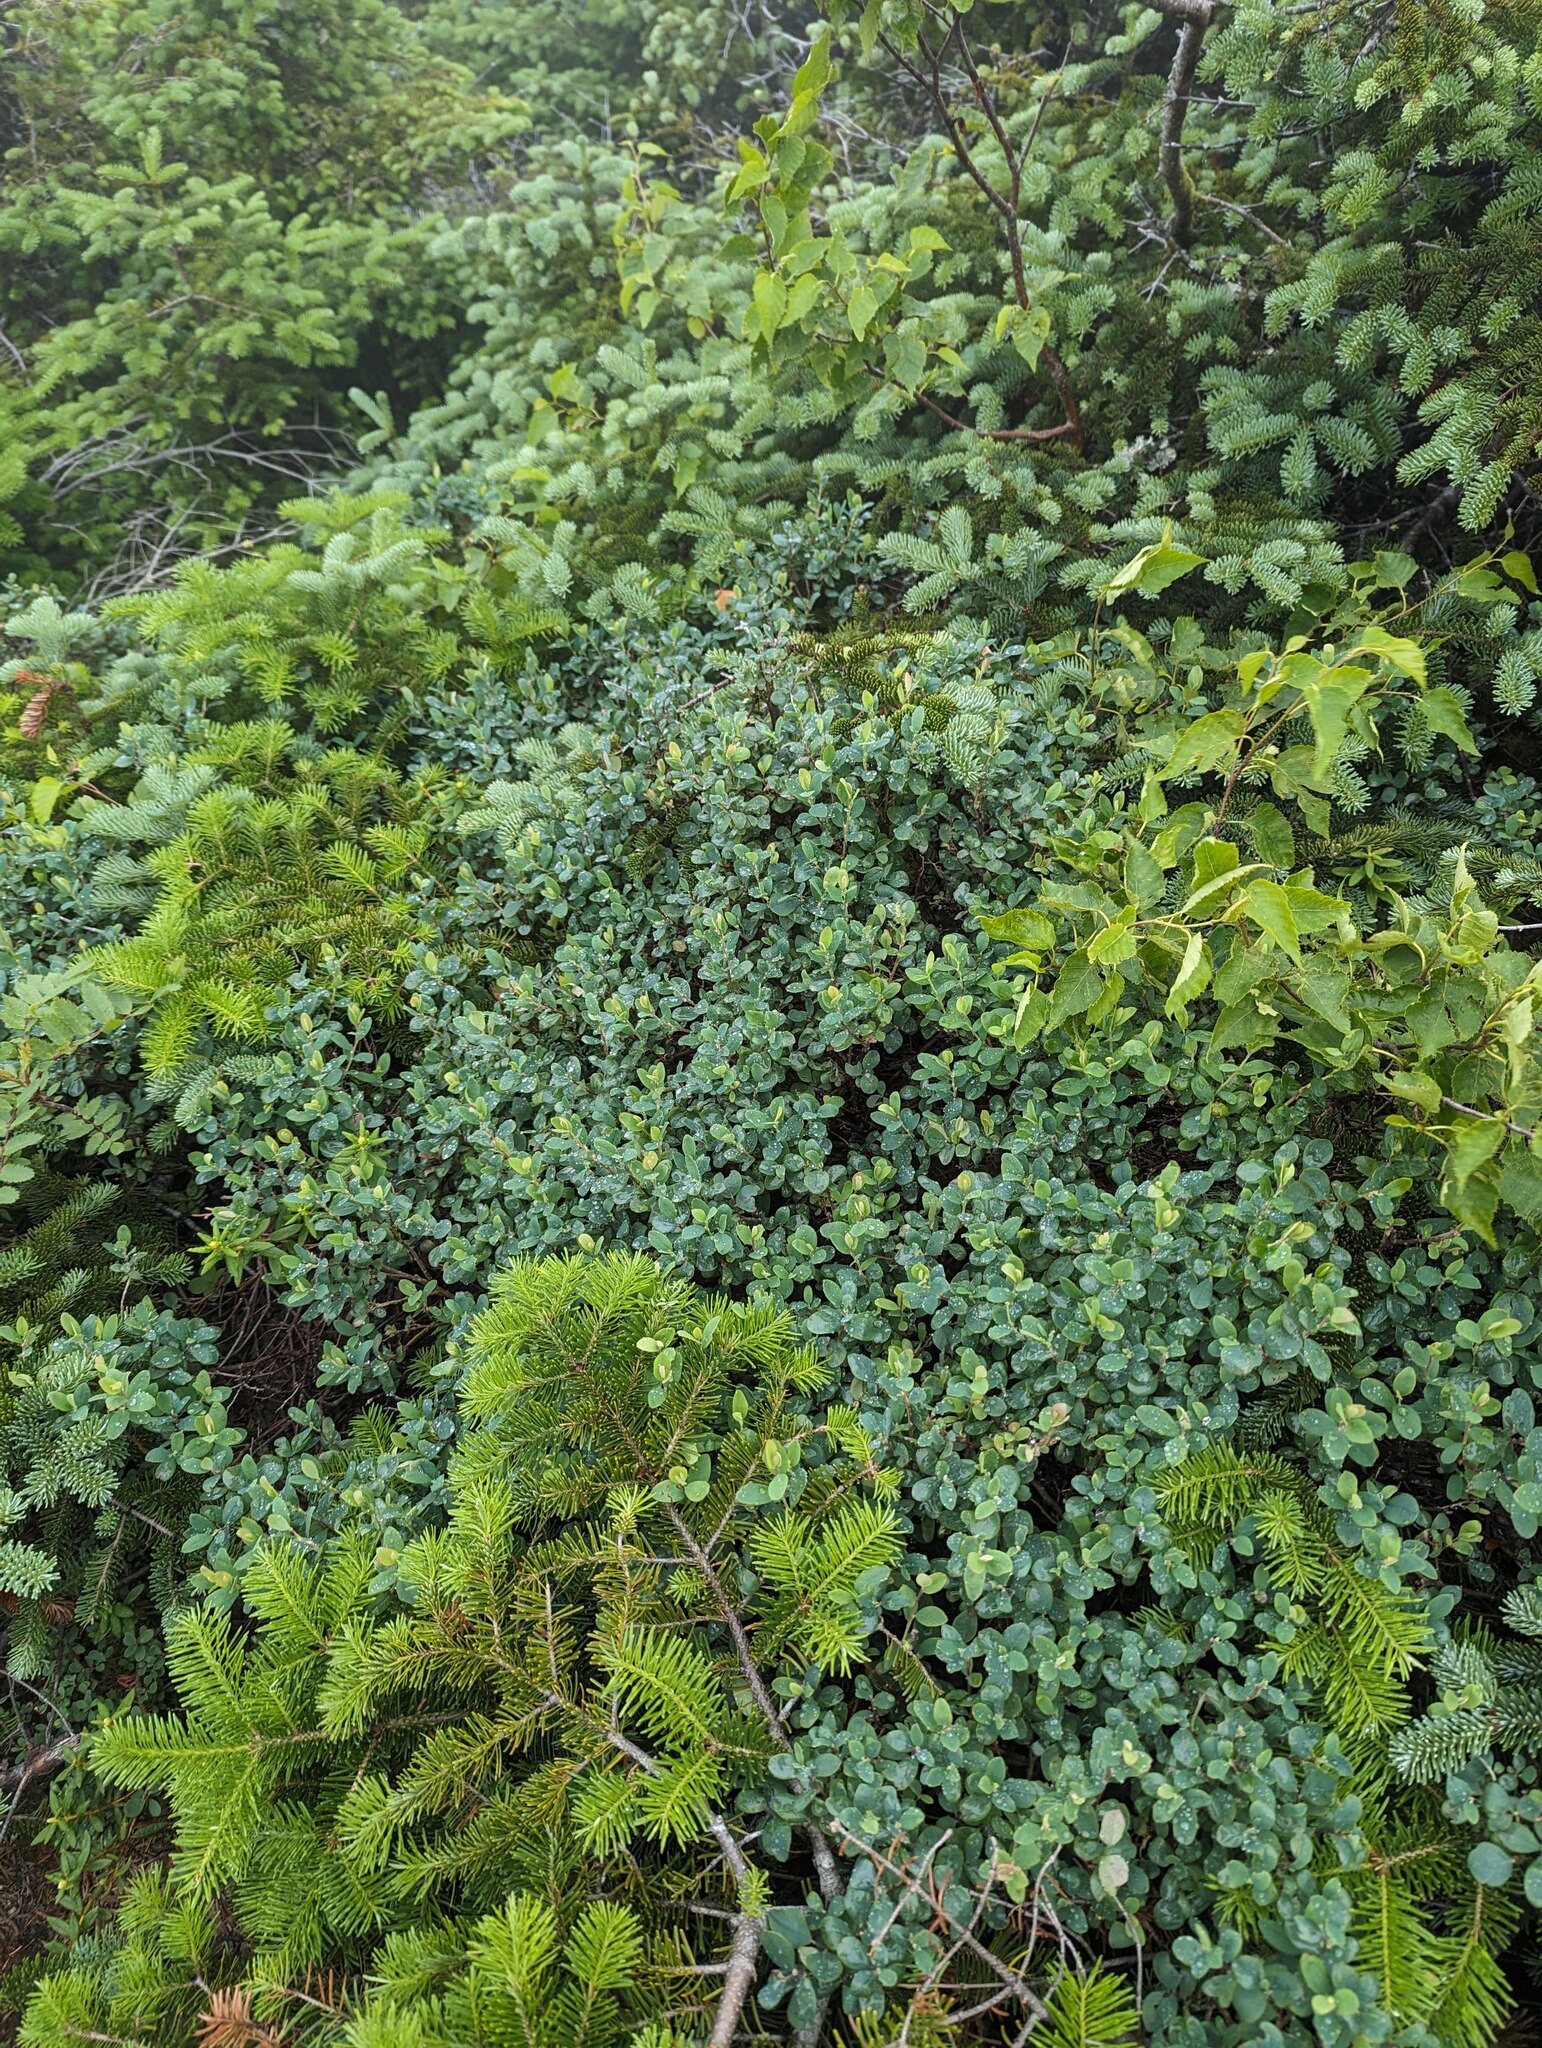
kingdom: Plantae
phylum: Tracheophyta
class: Magnoliopsida
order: Ericales
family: Ericaceae
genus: Vaccinium
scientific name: Vaccinium uliginosum
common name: Bog bilberry
